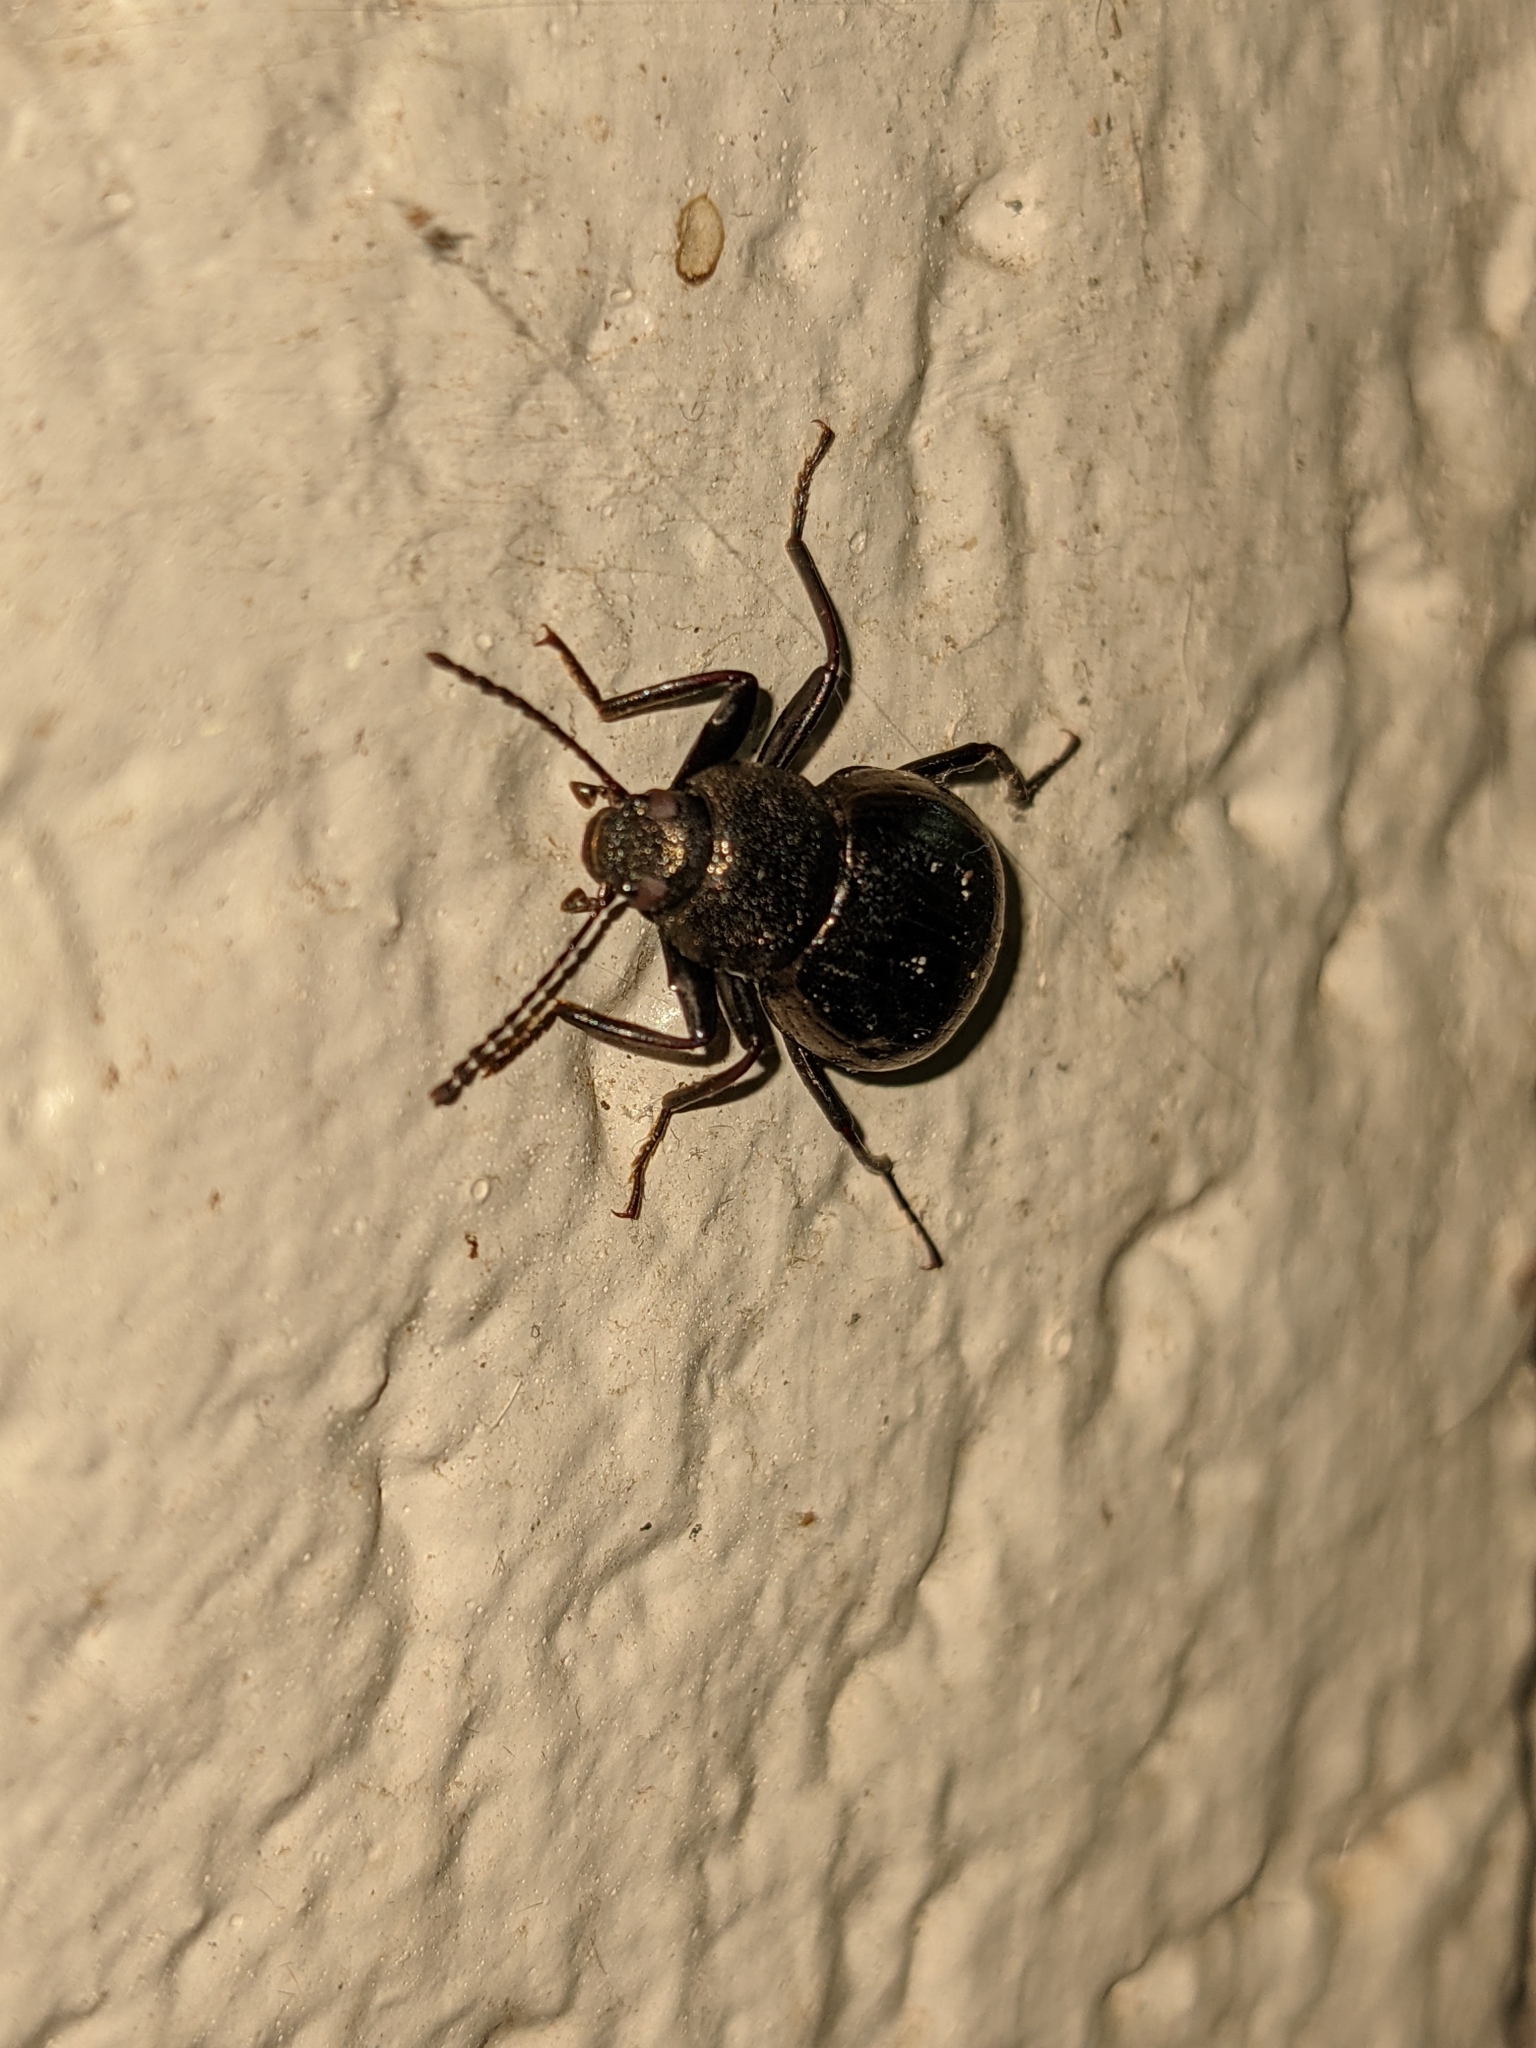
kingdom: Animalia
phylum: Arthropoda
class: Insecta
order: Coleoptera
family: Tenebrionidae
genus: Meracantha
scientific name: Meracantha contracta
